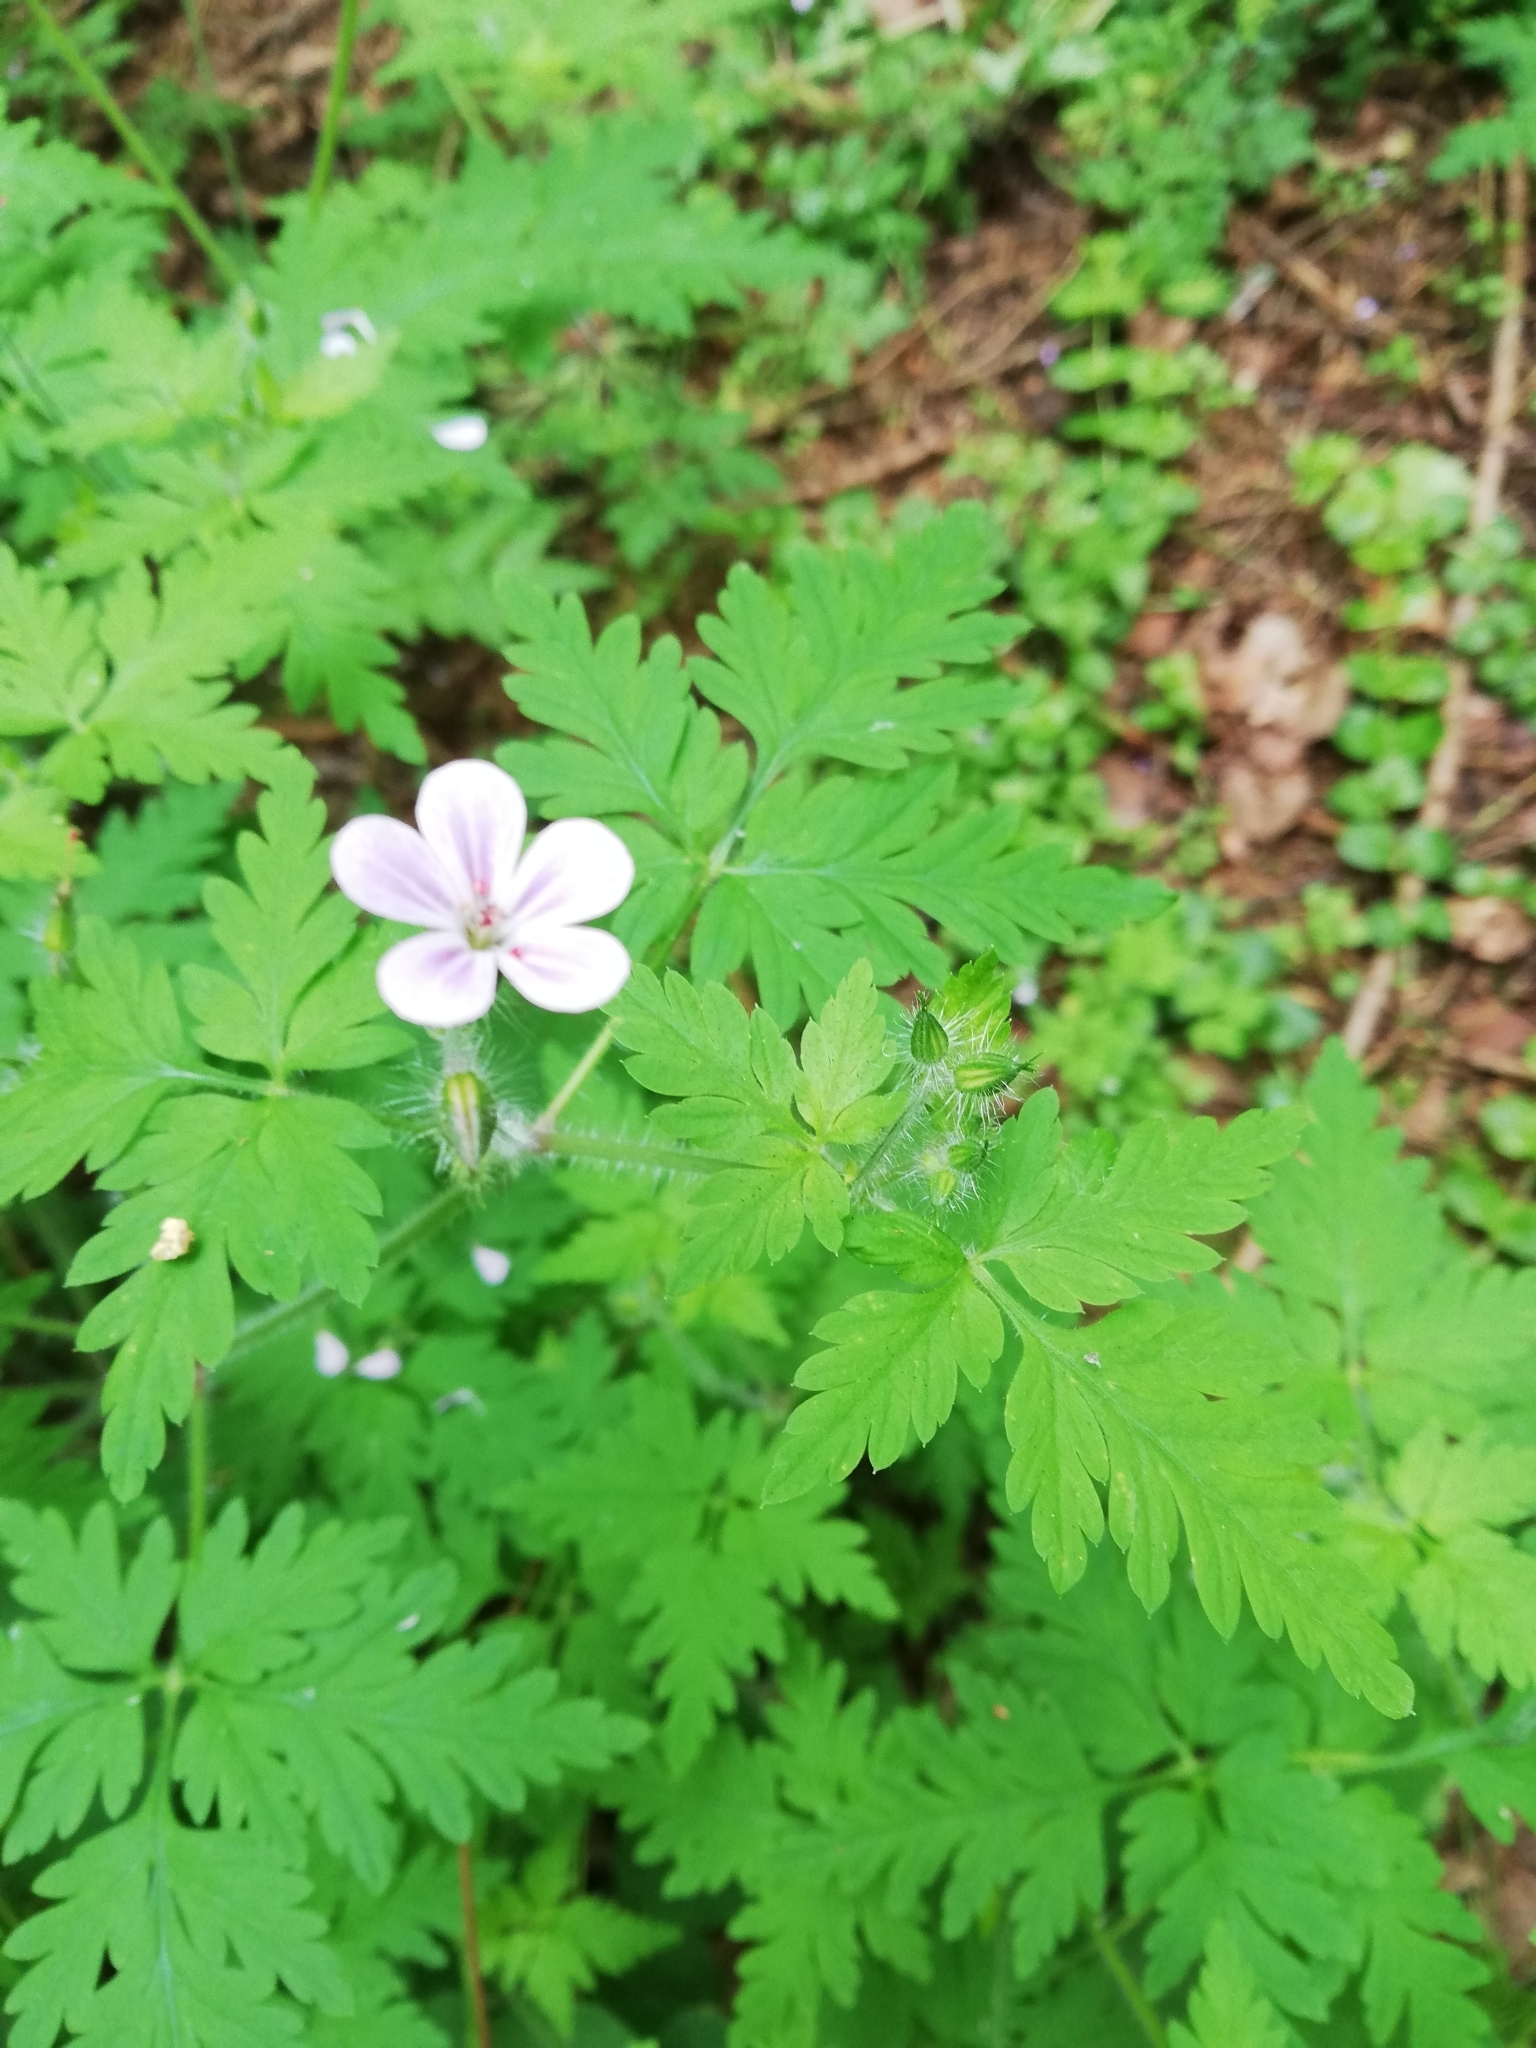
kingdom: Plantae
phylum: Tracheophyta
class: Magnoliopsida
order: Geraniales
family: Geraniaceae
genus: Geranium
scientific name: Geranium robertianum
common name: Herb-robert
